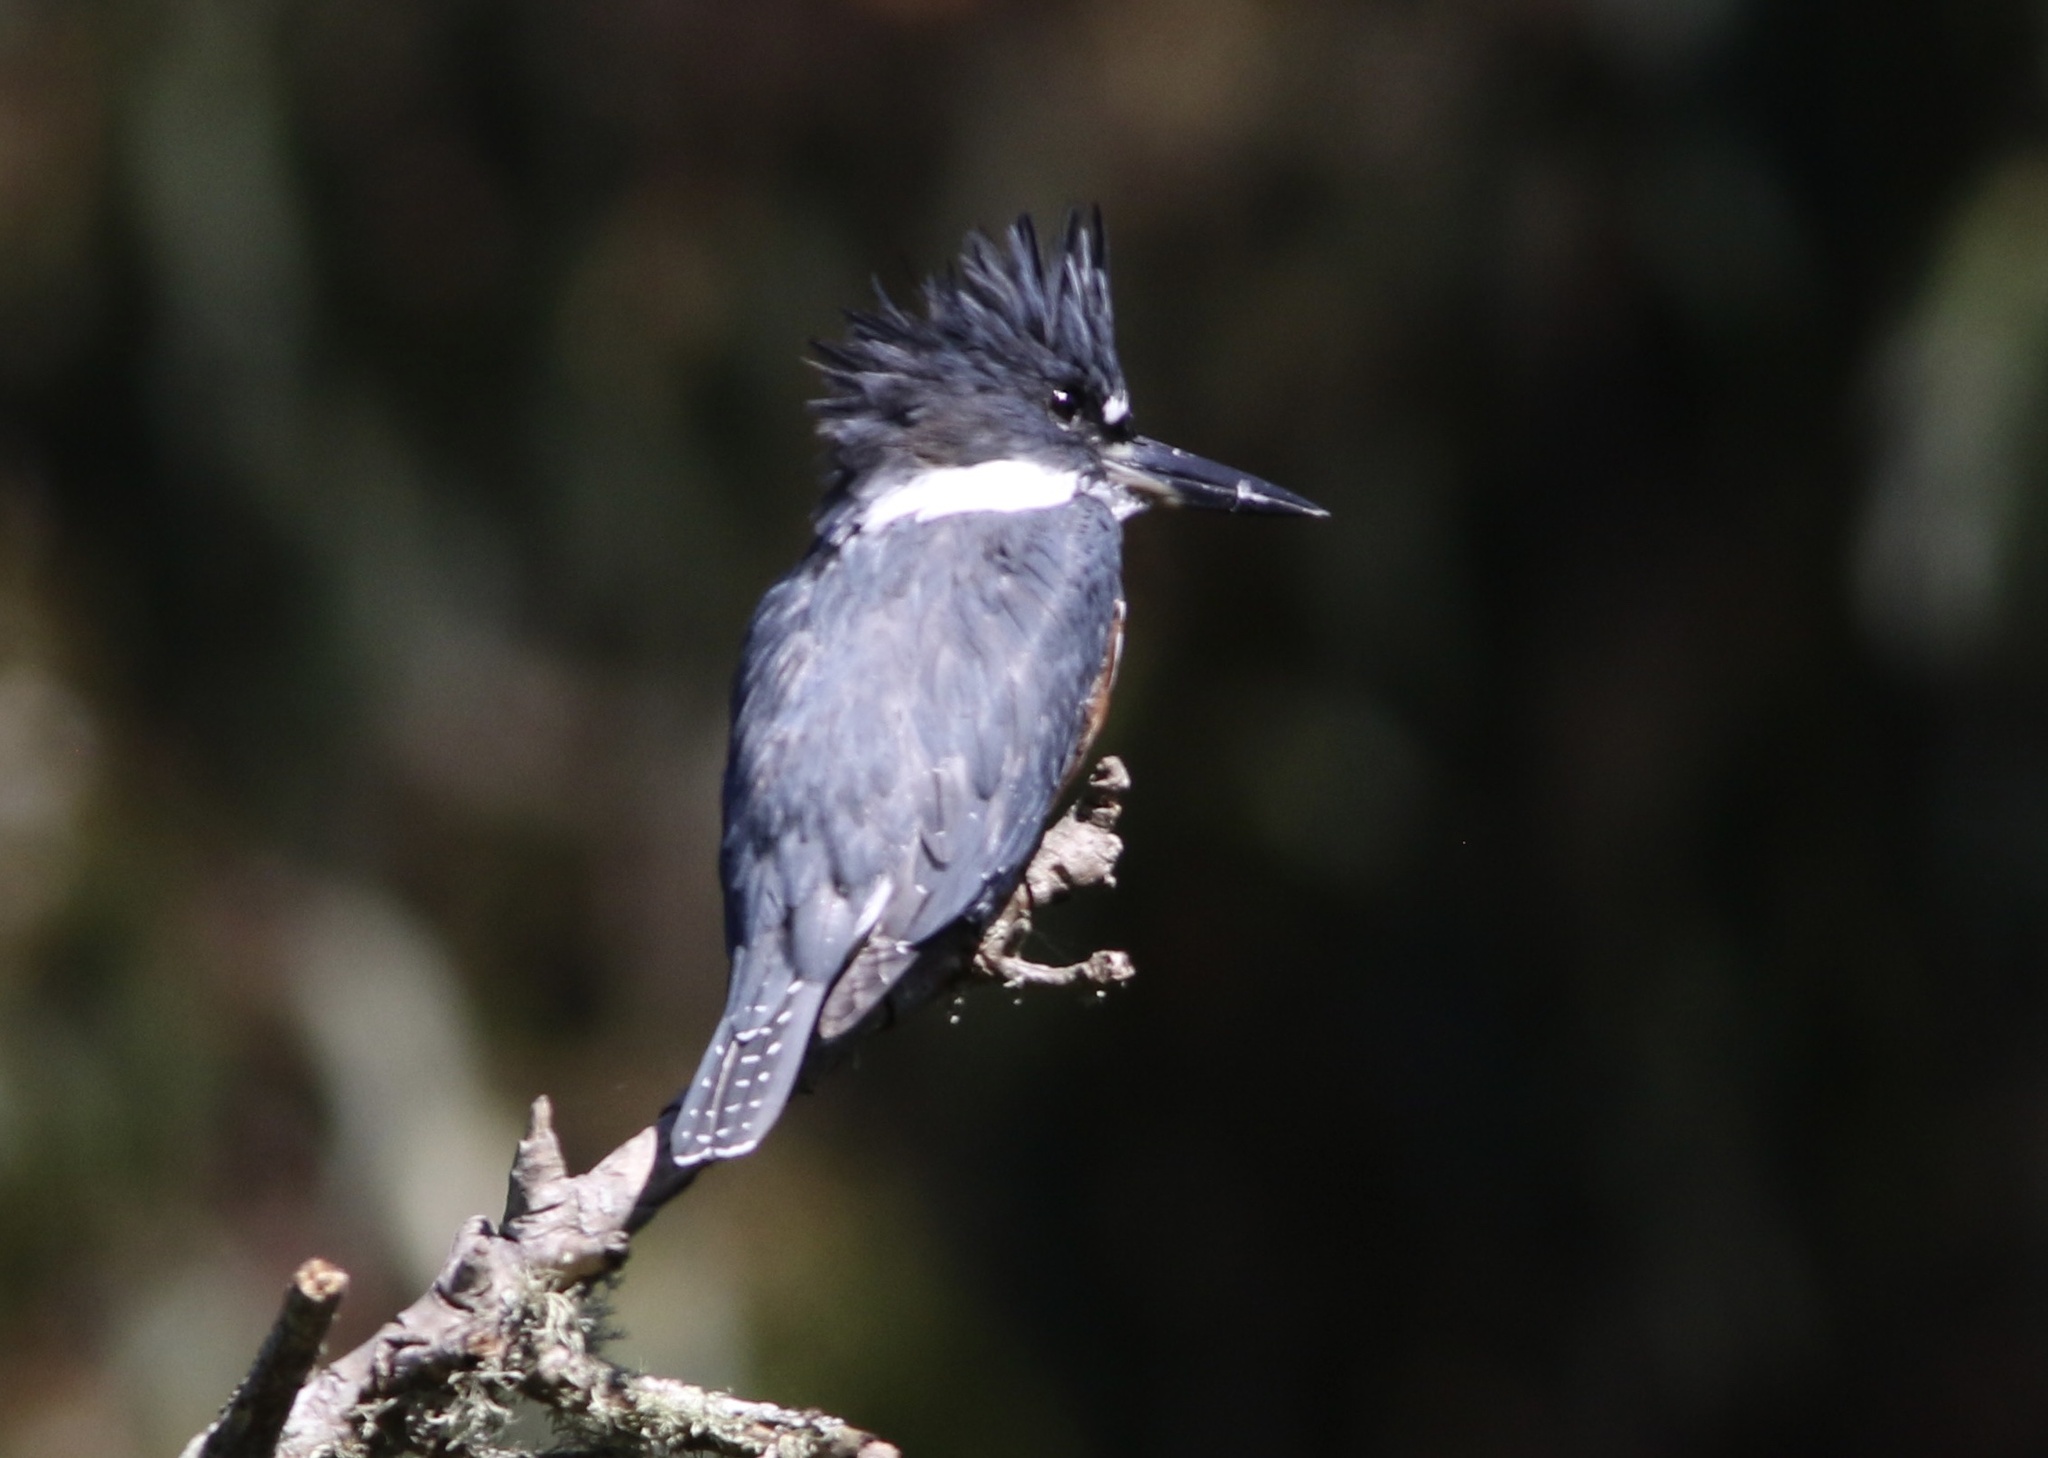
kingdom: Animalia
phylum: Chordata
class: Aves
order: Coraciiformes
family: Alcedinidae
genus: Megaceryle
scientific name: Megaceryle alcyon
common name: Belted kingfisher
